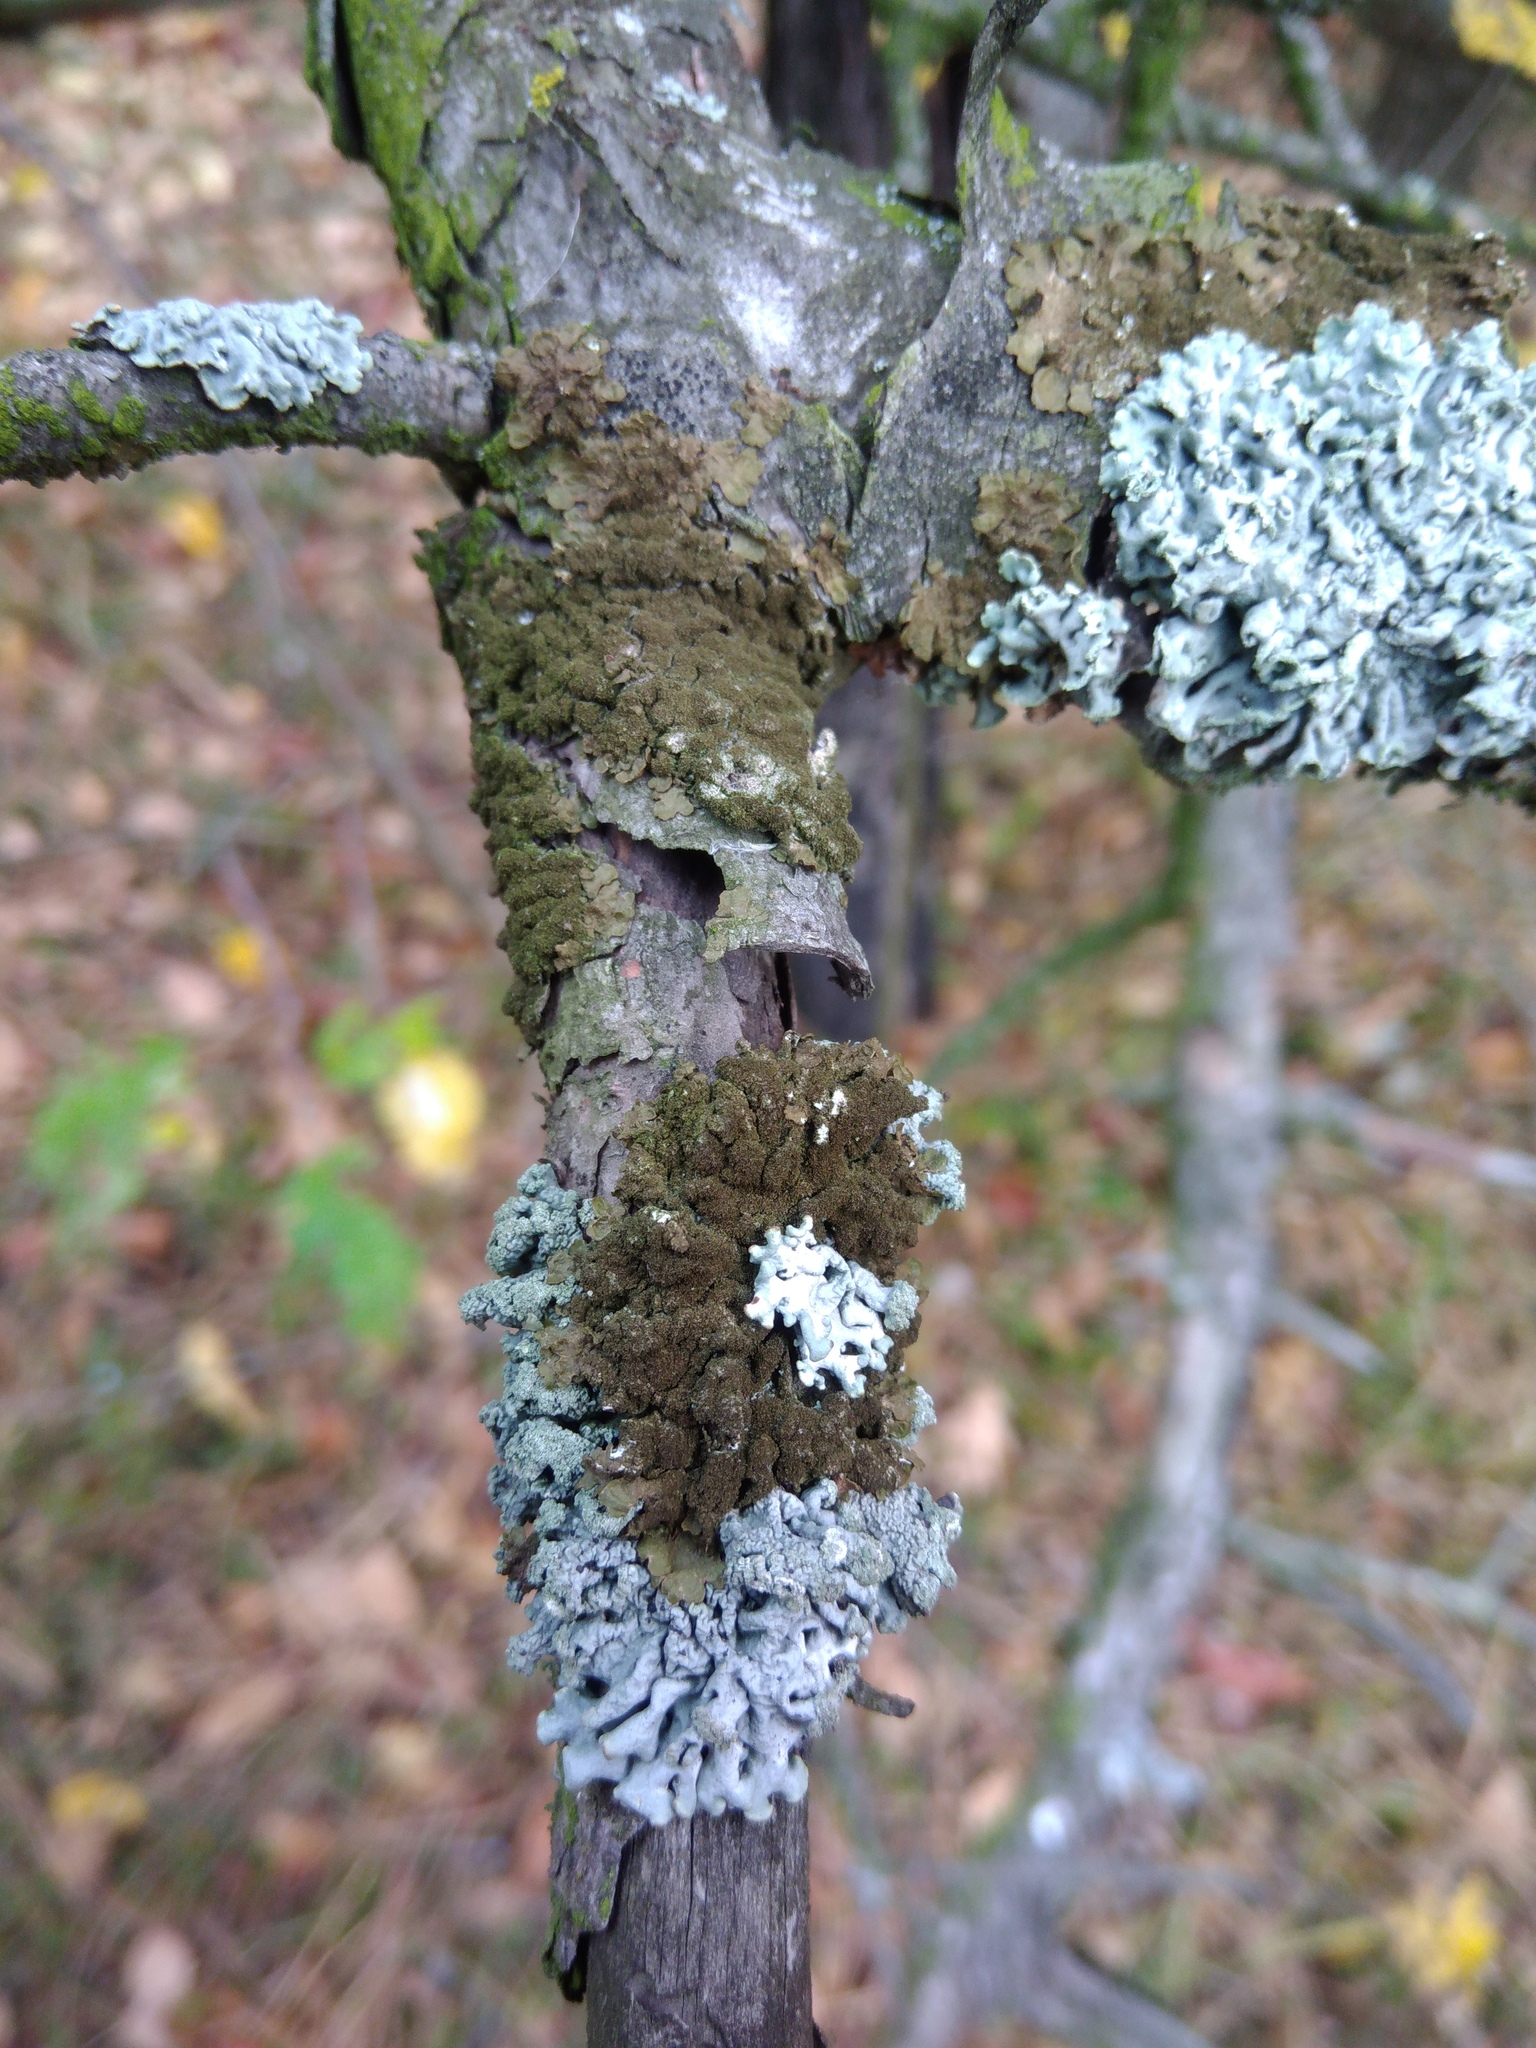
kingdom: Fungi
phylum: Ascomycota
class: Lecanoromycetes
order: Lecanorales
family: Parmeliaceae
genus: Melanelixia
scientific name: Melanelixia subaurifera
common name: Abraded camouflage lichen
